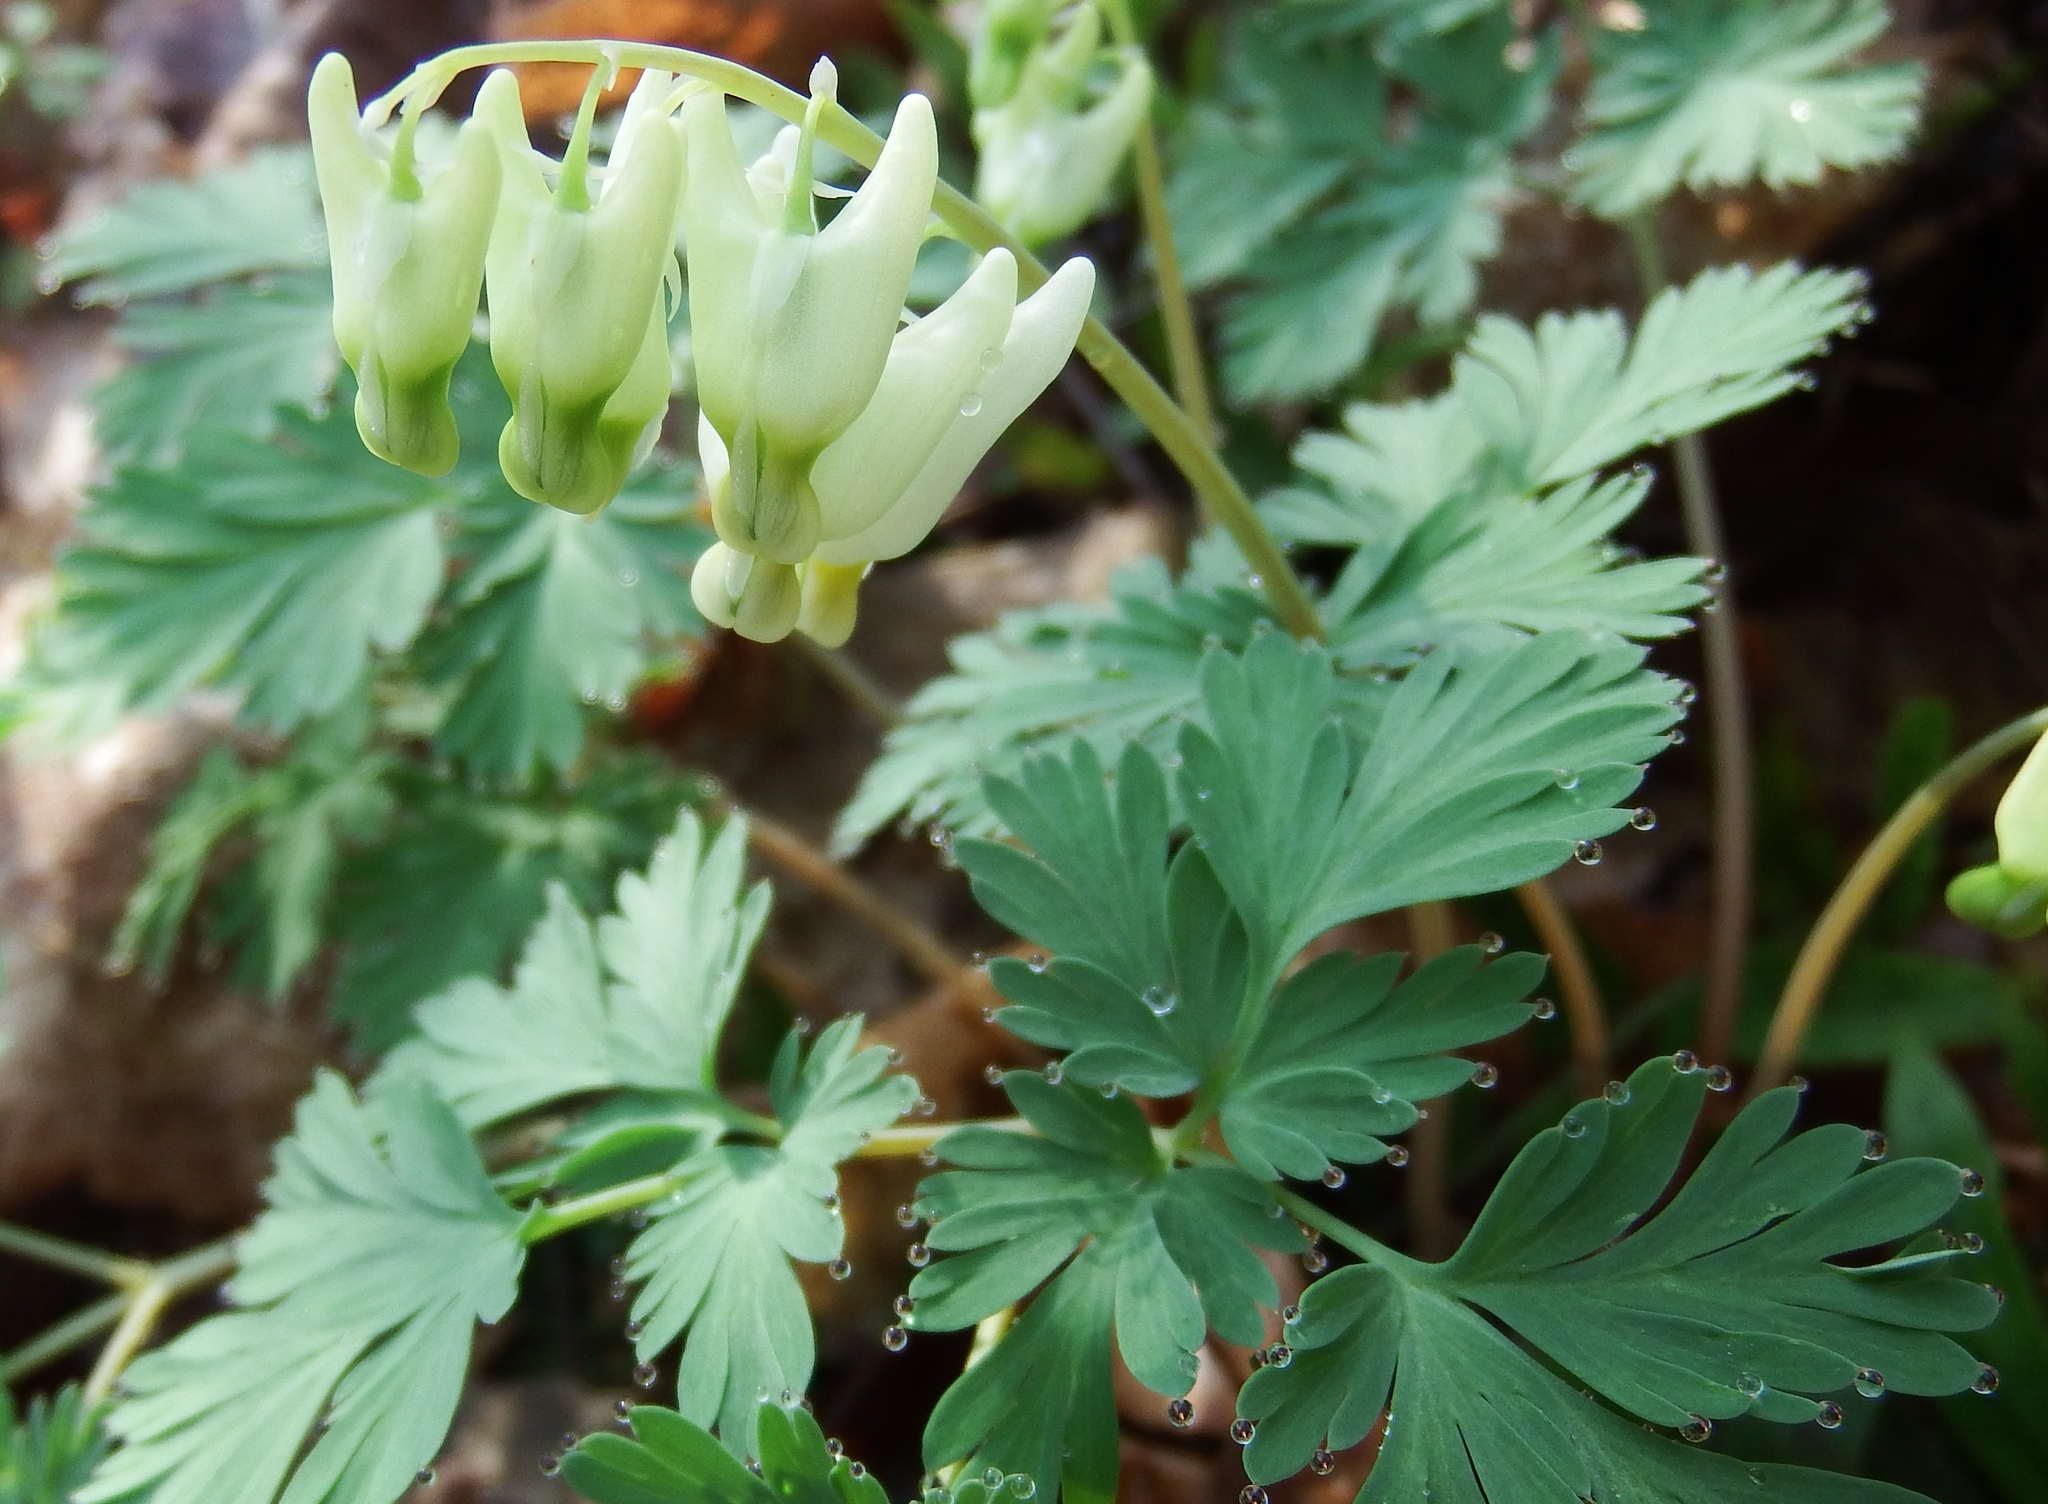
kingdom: Plantae
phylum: Tracheophyta
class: Magnoliopsida
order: Ranunculales
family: Papaveraceae
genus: Dicentra
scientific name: Dicentra cucullaria
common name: Dutchman's breeches
